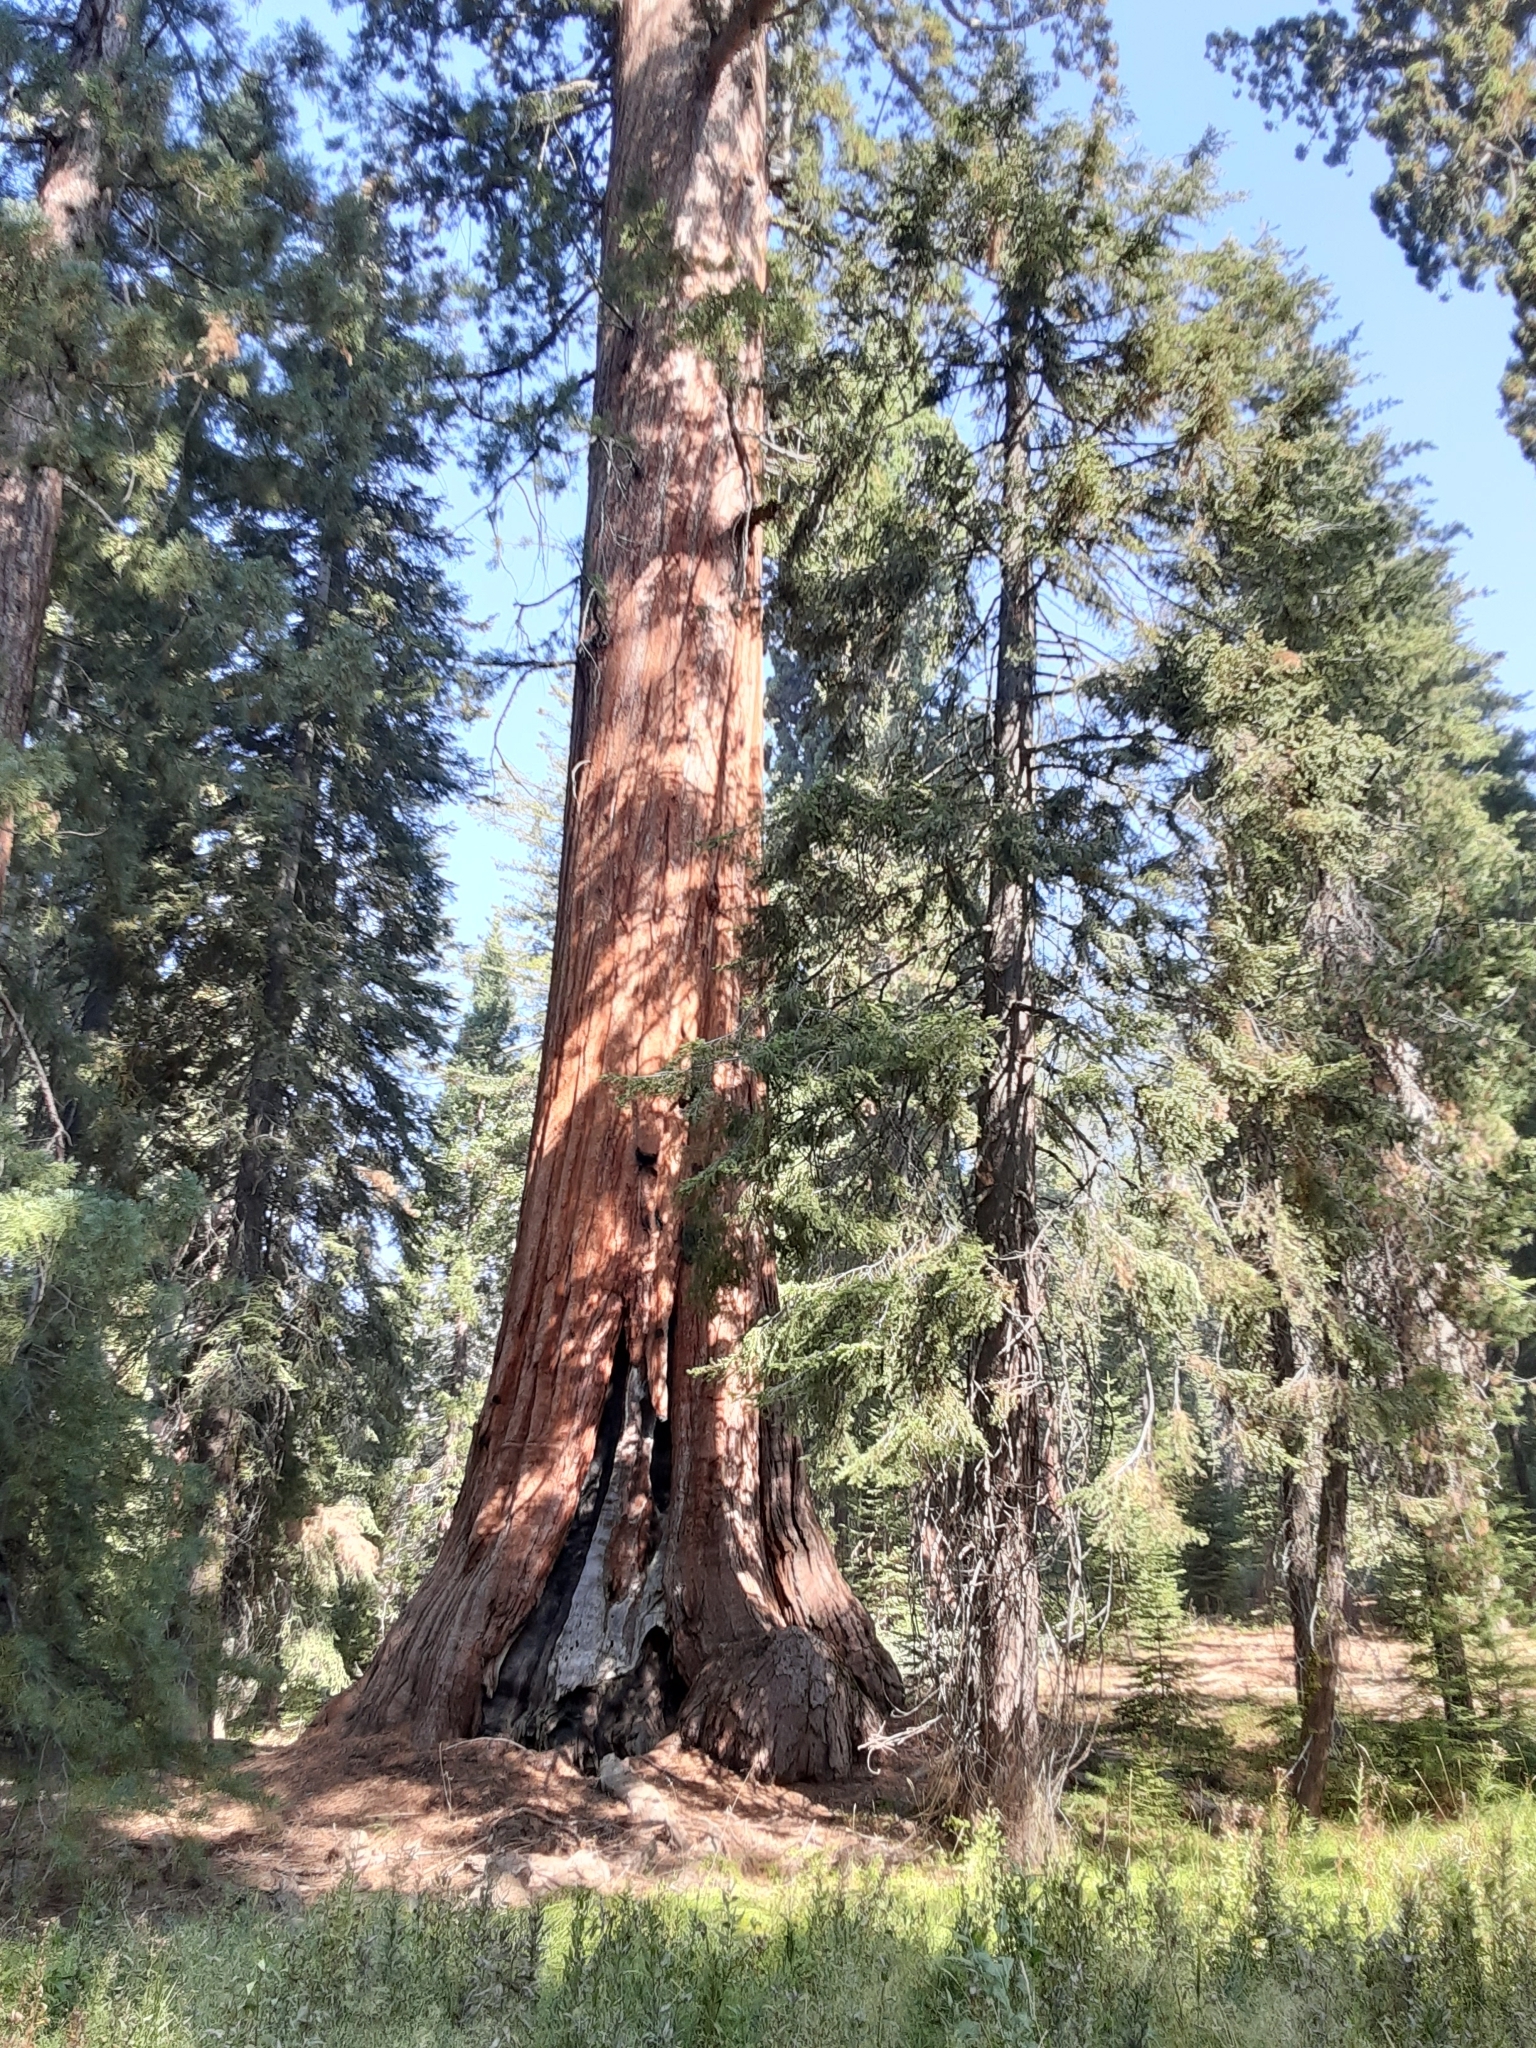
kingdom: Plantae
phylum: Tracheophyta
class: Pinopsida
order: Pinales
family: Cupressaceae
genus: Sequoiadendron
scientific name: Sequoiadendron giganteum
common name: Wellingtonia
